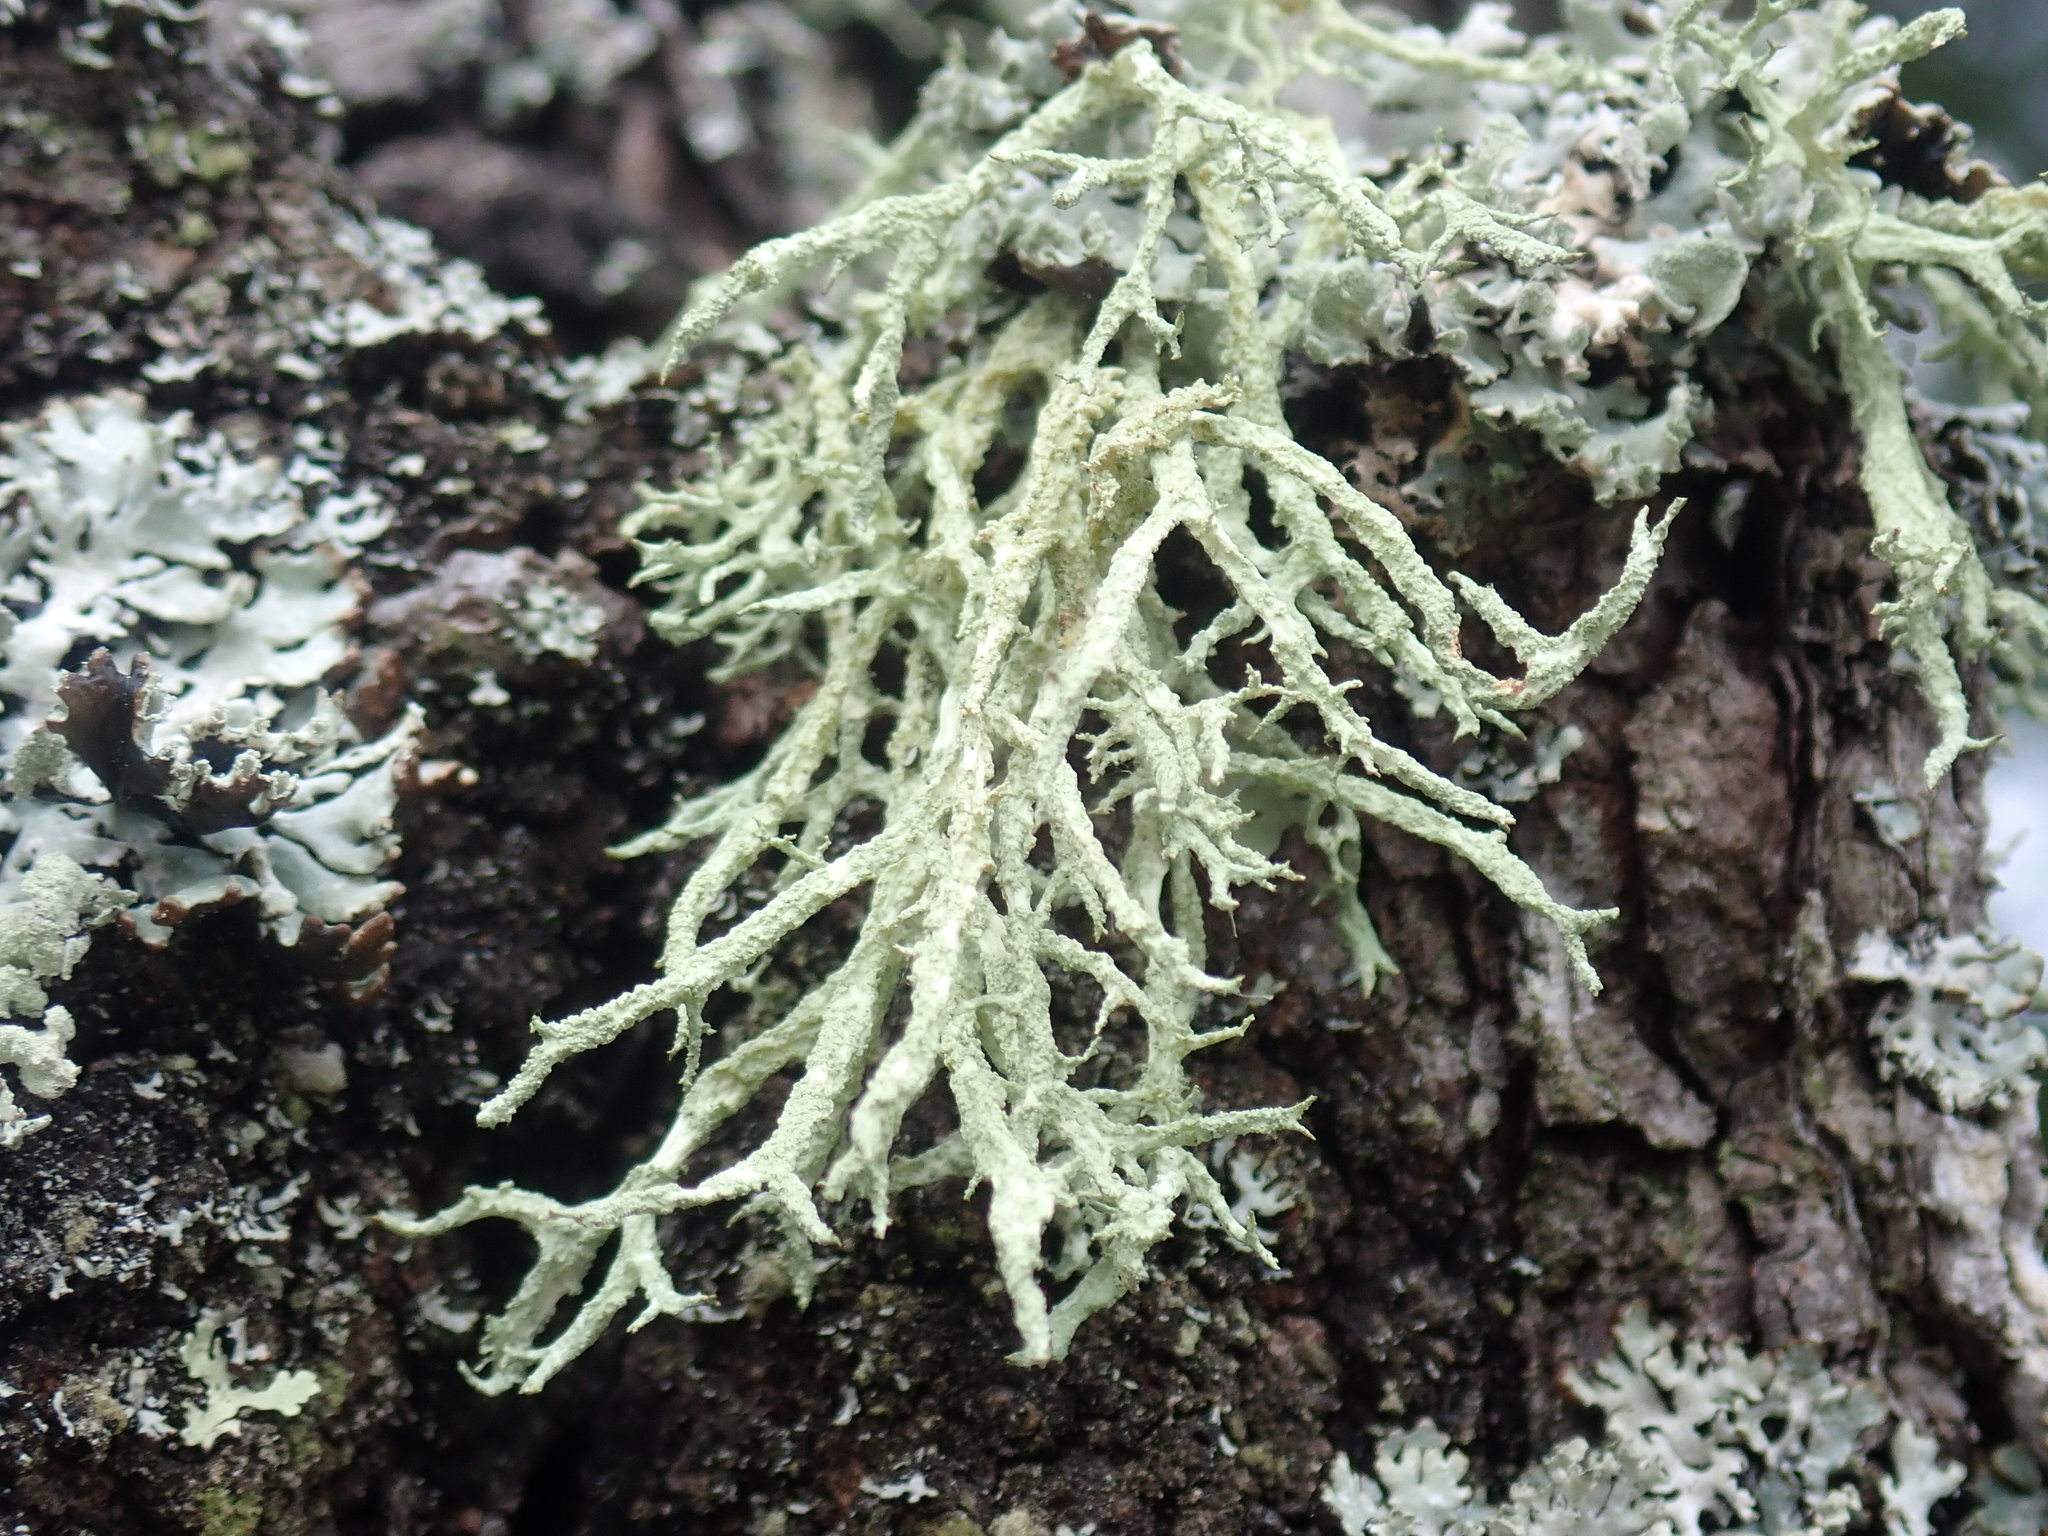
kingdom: Fungi
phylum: Ascomycota
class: Lecanoromycetes
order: Lecanorales
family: Parmeliaceae
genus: Evernia
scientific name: Evernia mesomorpha
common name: Boreal oak moss lichen
